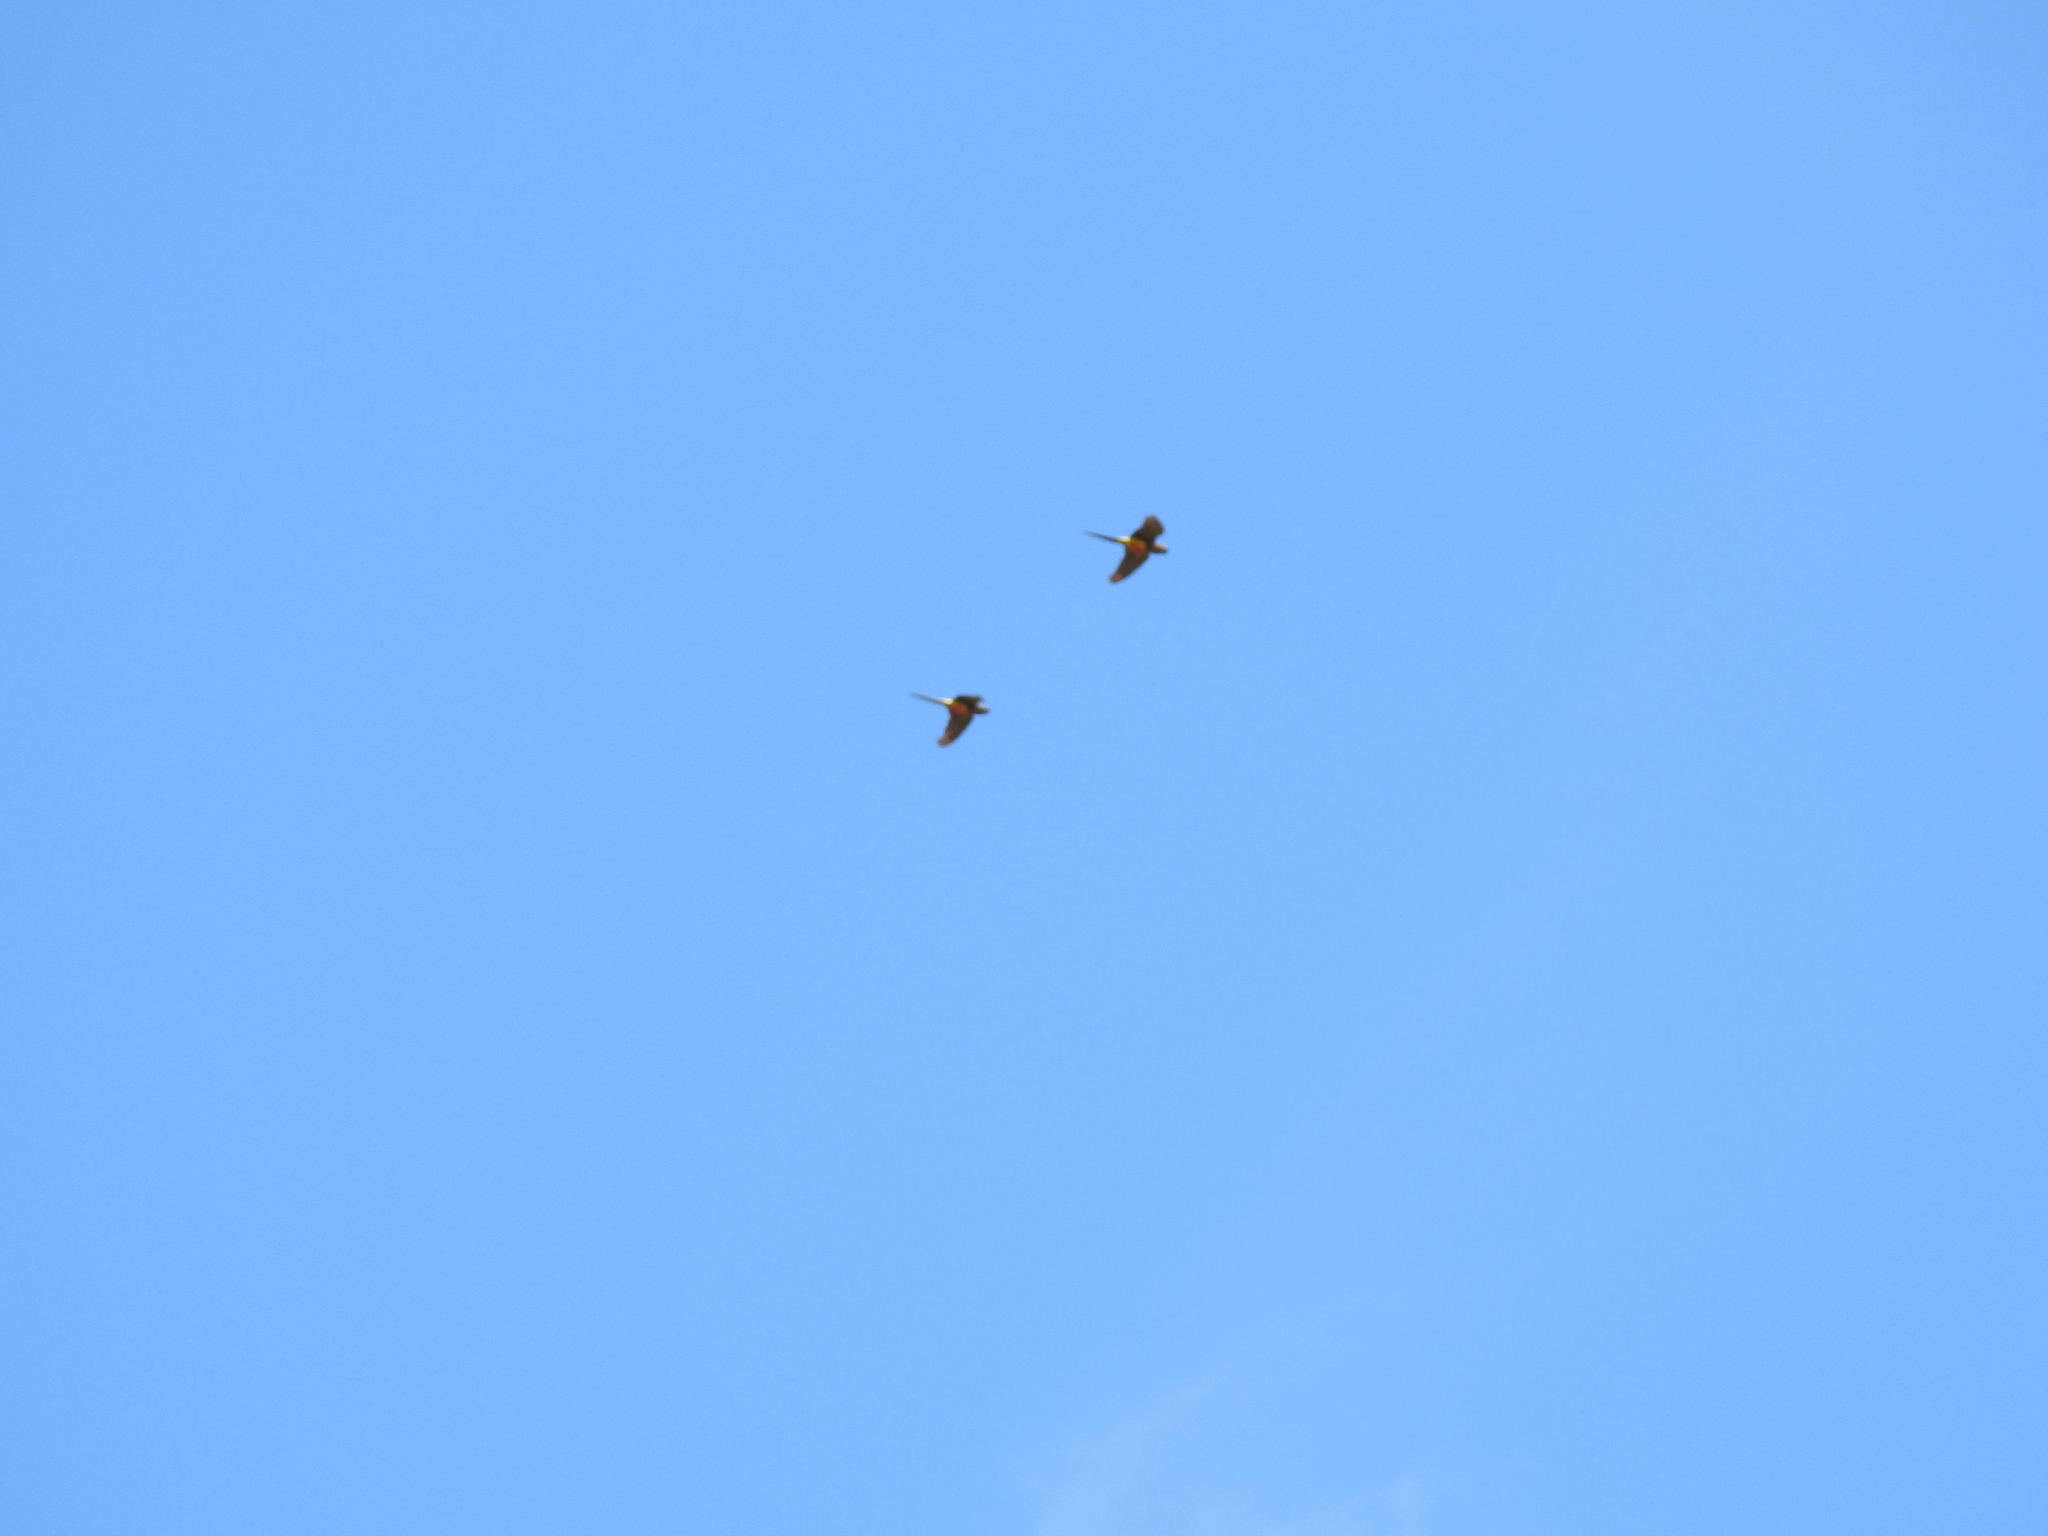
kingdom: Animalia
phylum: Chordata
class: Aves
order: Psittaciformes
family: Psittacidae
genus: Cyanoliseus
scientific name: Cyanoliseus patagonus
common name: Burrowing parrot
